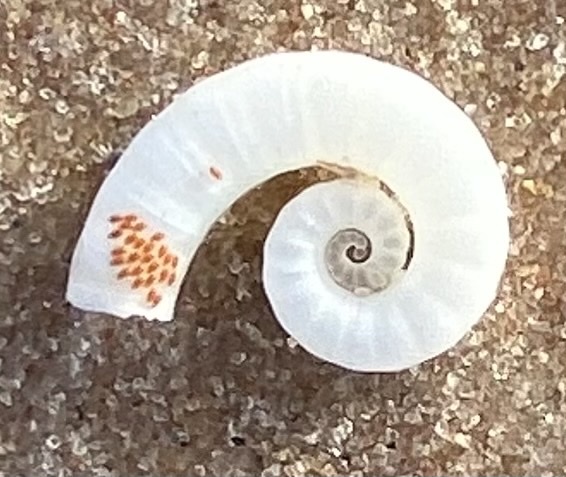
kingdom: Animalia
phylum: Mollusca
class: Cephalopoda
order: Spirulida
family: Spirulidae
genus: Spirula
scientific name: Spirula spirula
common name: Ram's horn squid
